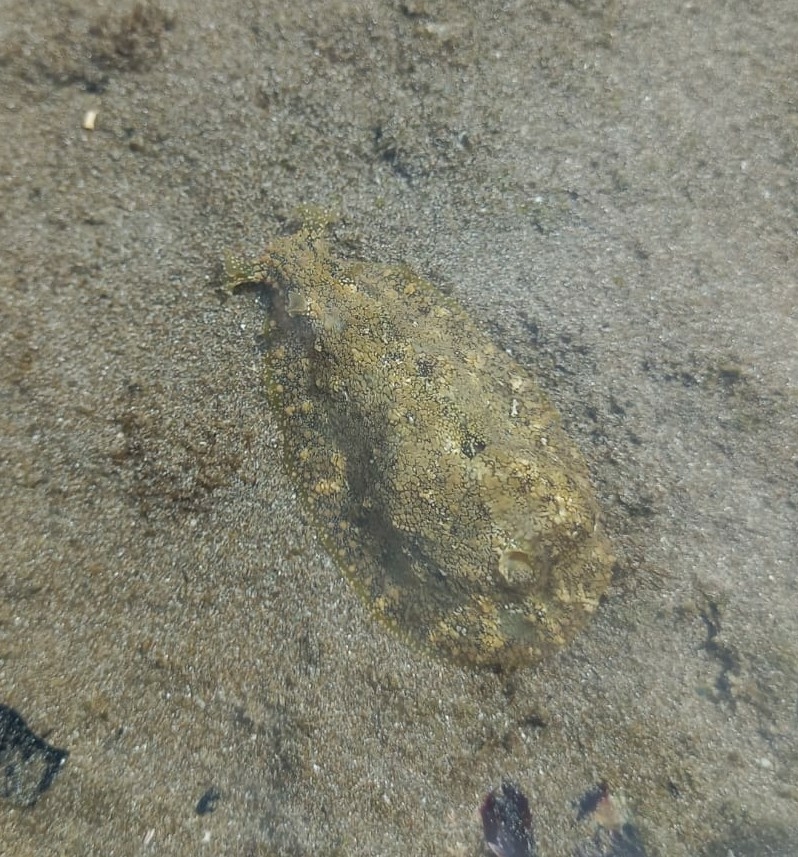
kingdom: Animalia
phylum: Mollusca
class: Gastropoda
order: Aplysiida
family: Aplysiidae
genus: Dolabrifera
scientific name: Dolabrifera nicaraguana
